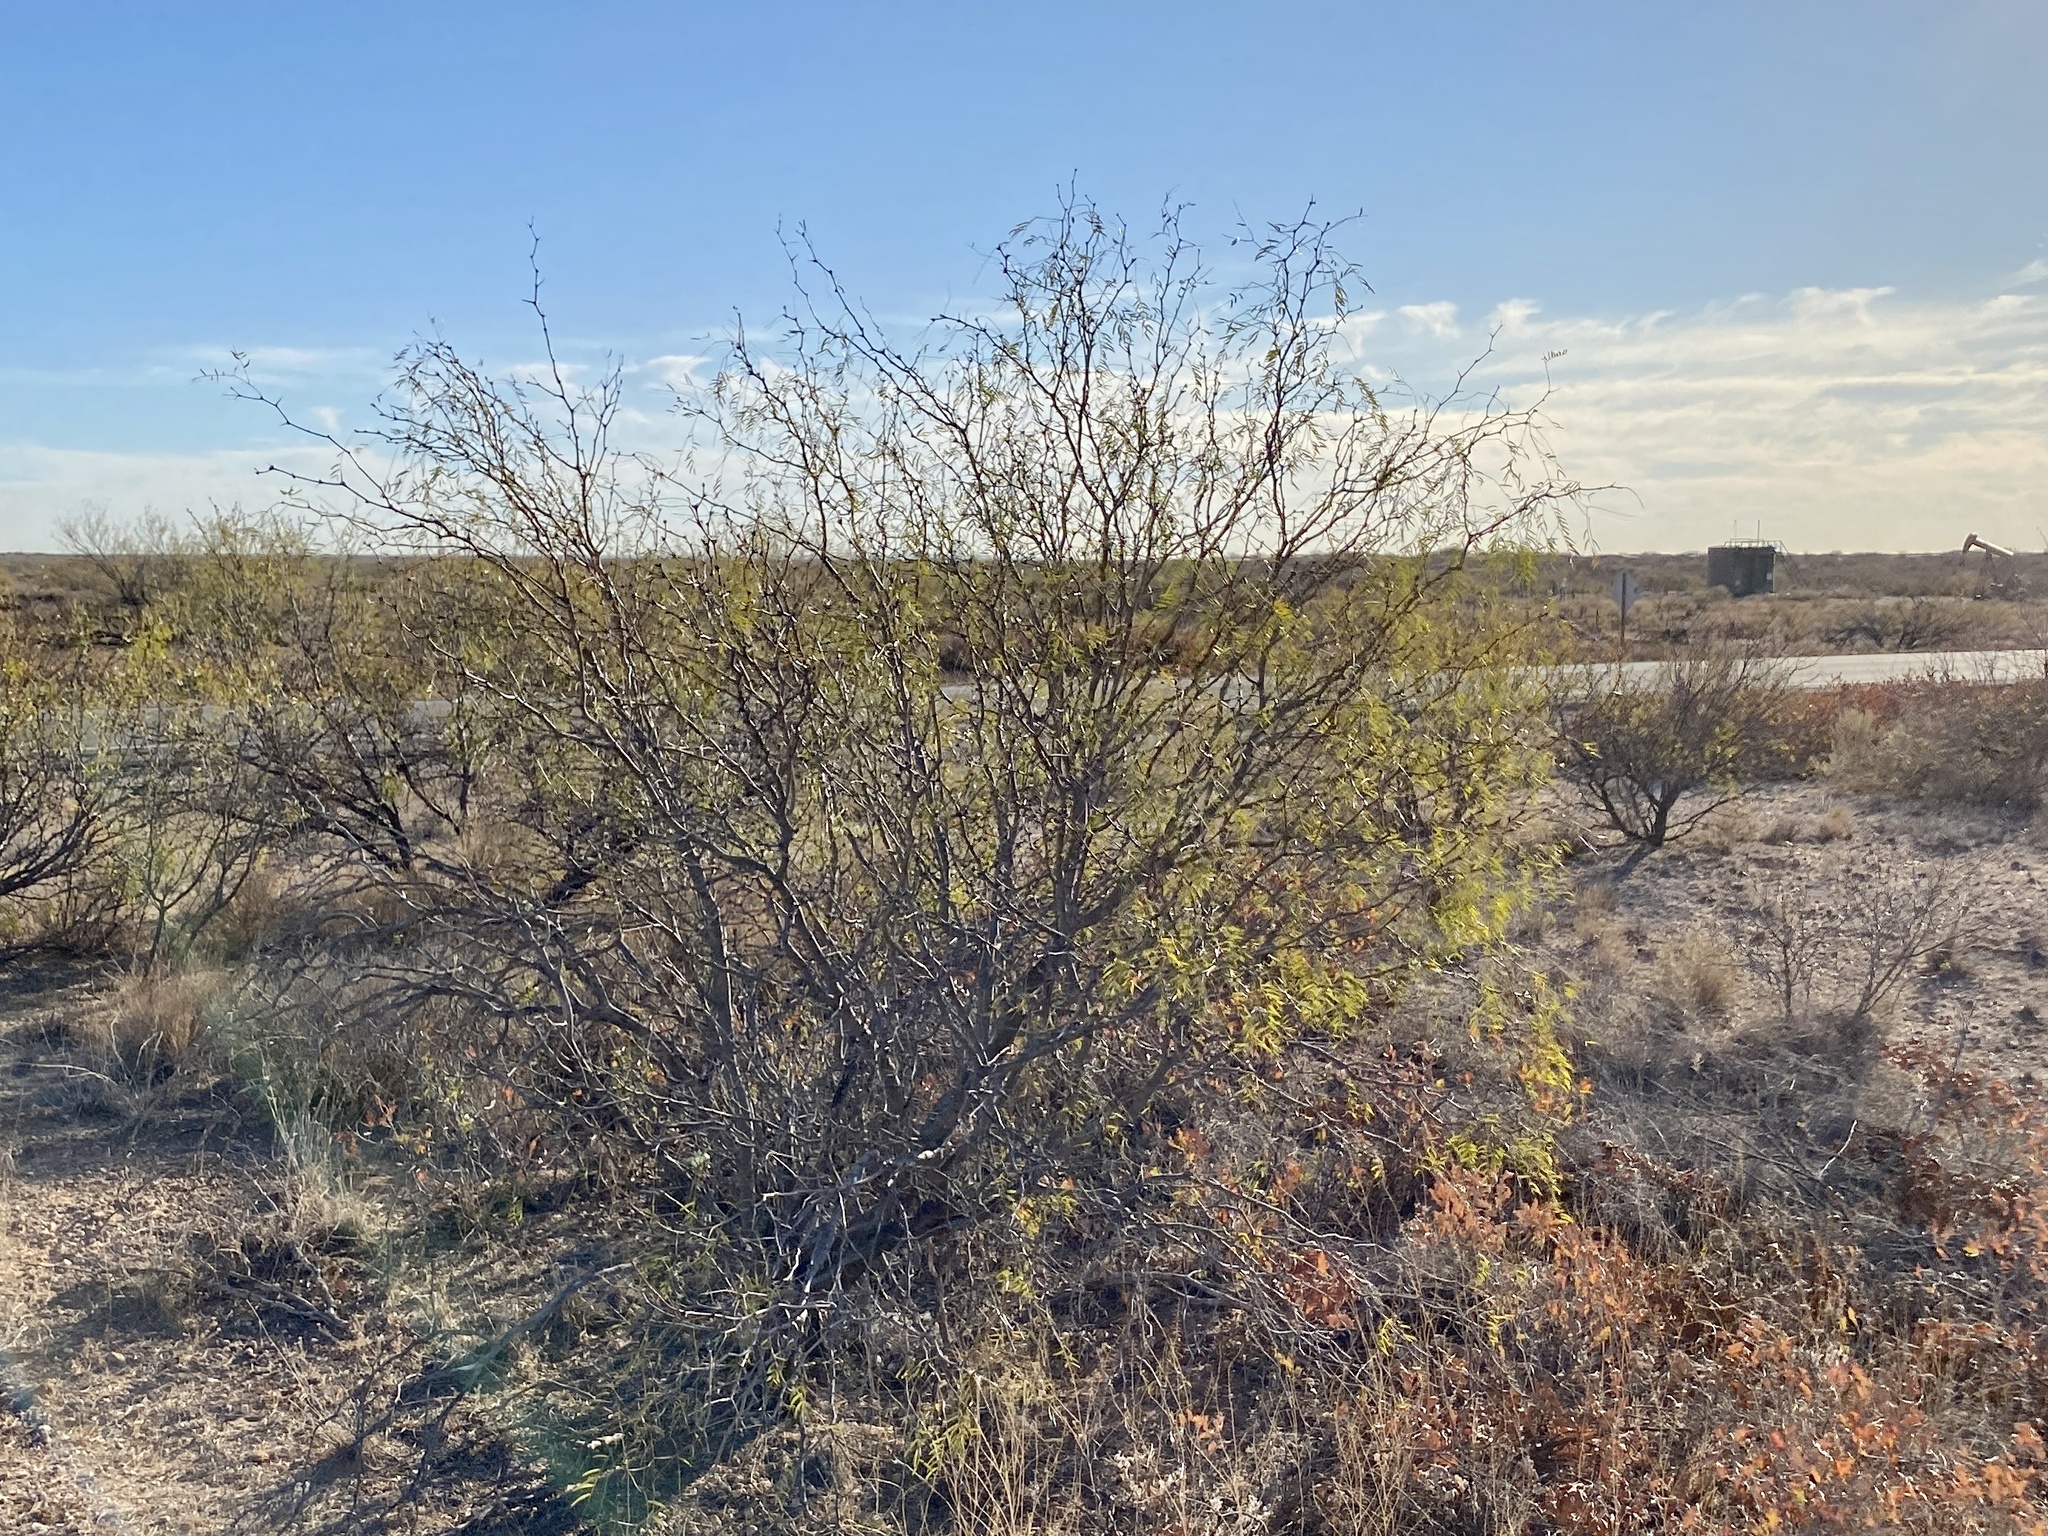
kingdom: Plantae
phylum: Tracheophyta
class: Magnoliopsida
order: Fabales
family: Fabaceae
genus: Prosopis
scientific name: Prosopis glandulosa
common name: Honey mesquite
